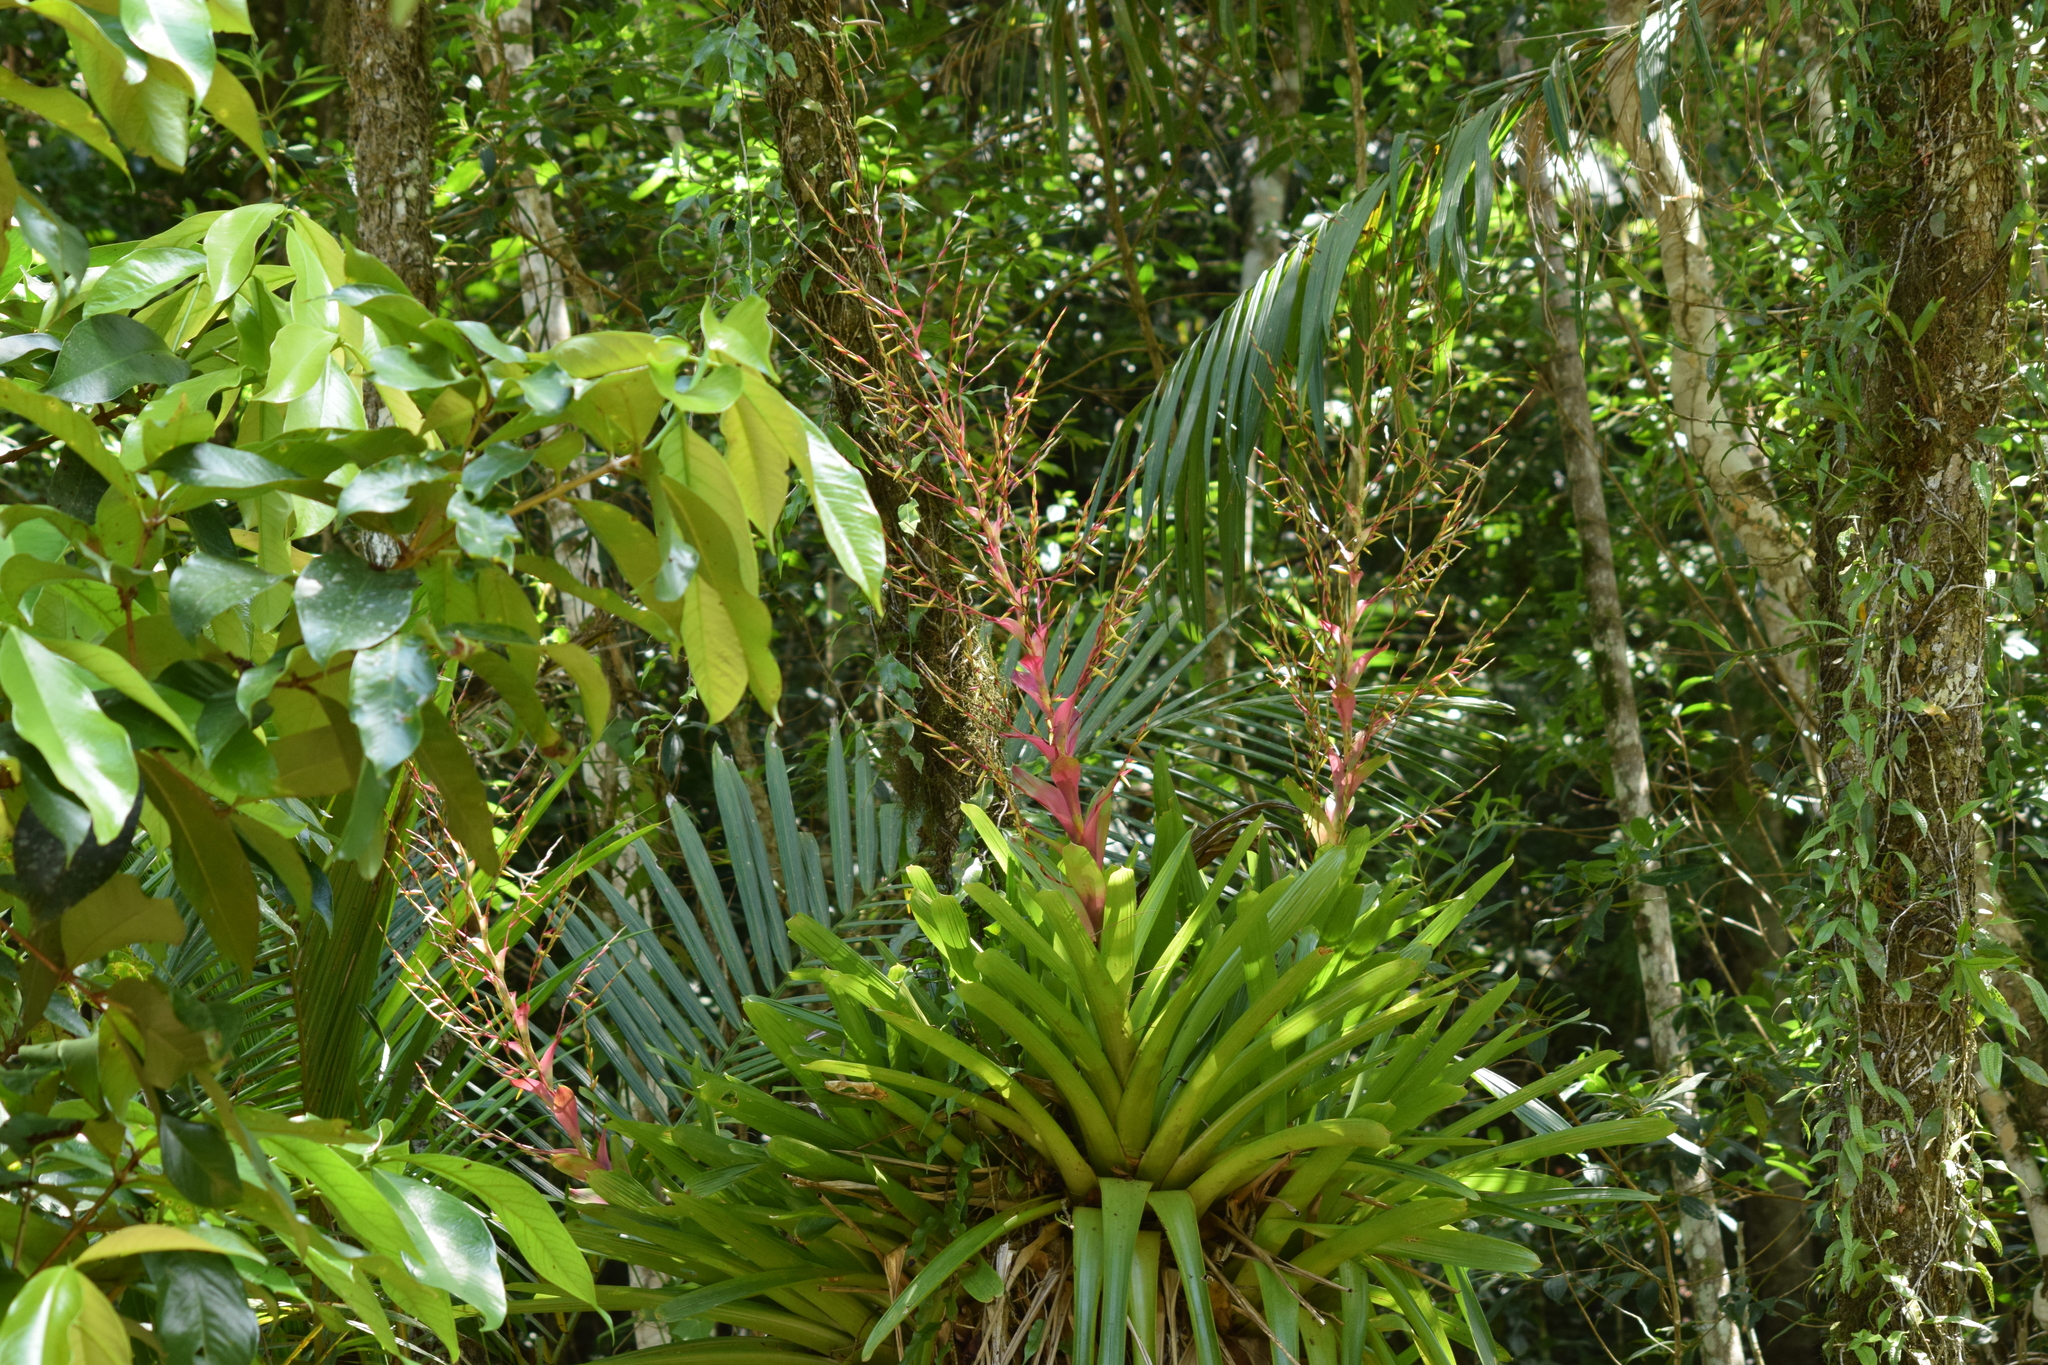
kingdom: Plantae
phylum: Tracheophyta
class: Liliopsida
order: Poales
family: Bromeliaceae
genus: Vriesea
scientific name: Vriesea philippocoburgi
